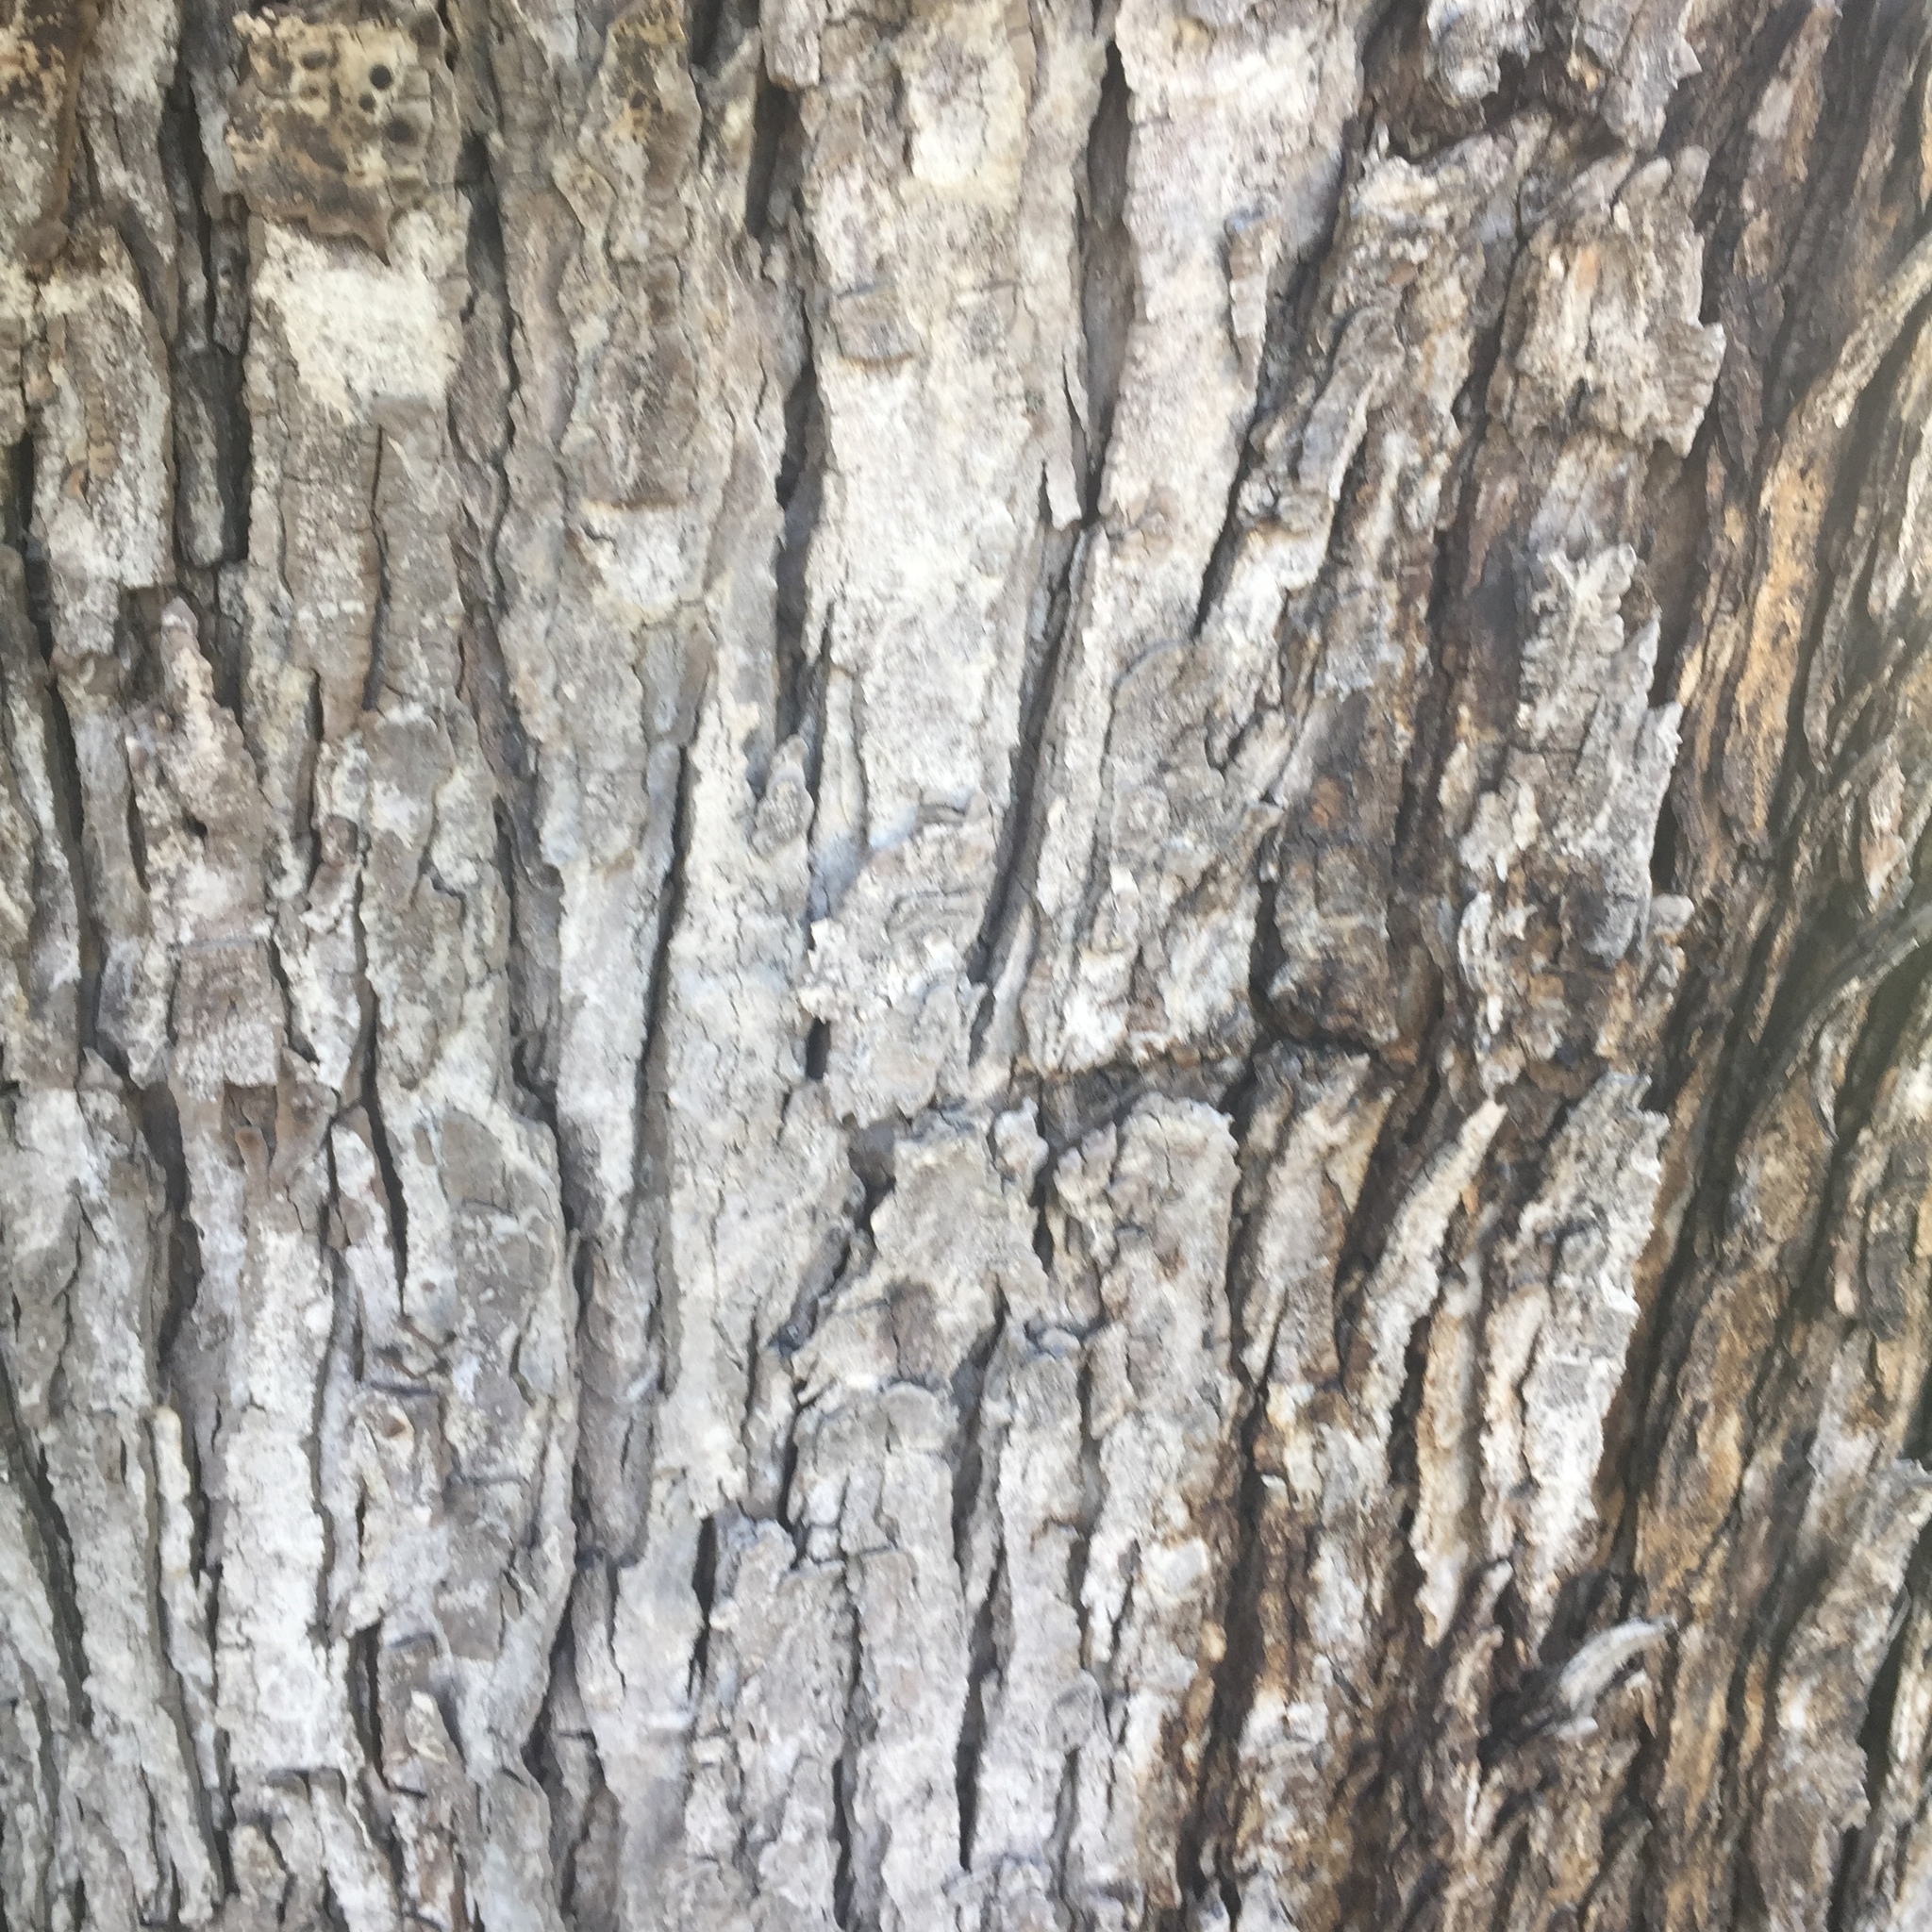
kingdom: Plantae
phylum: Tracheophyta
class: Magnoliopsida
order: Sapindales
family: Sapindaceae
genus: Acer
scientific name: Acer saccharinum
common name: Silver maple
